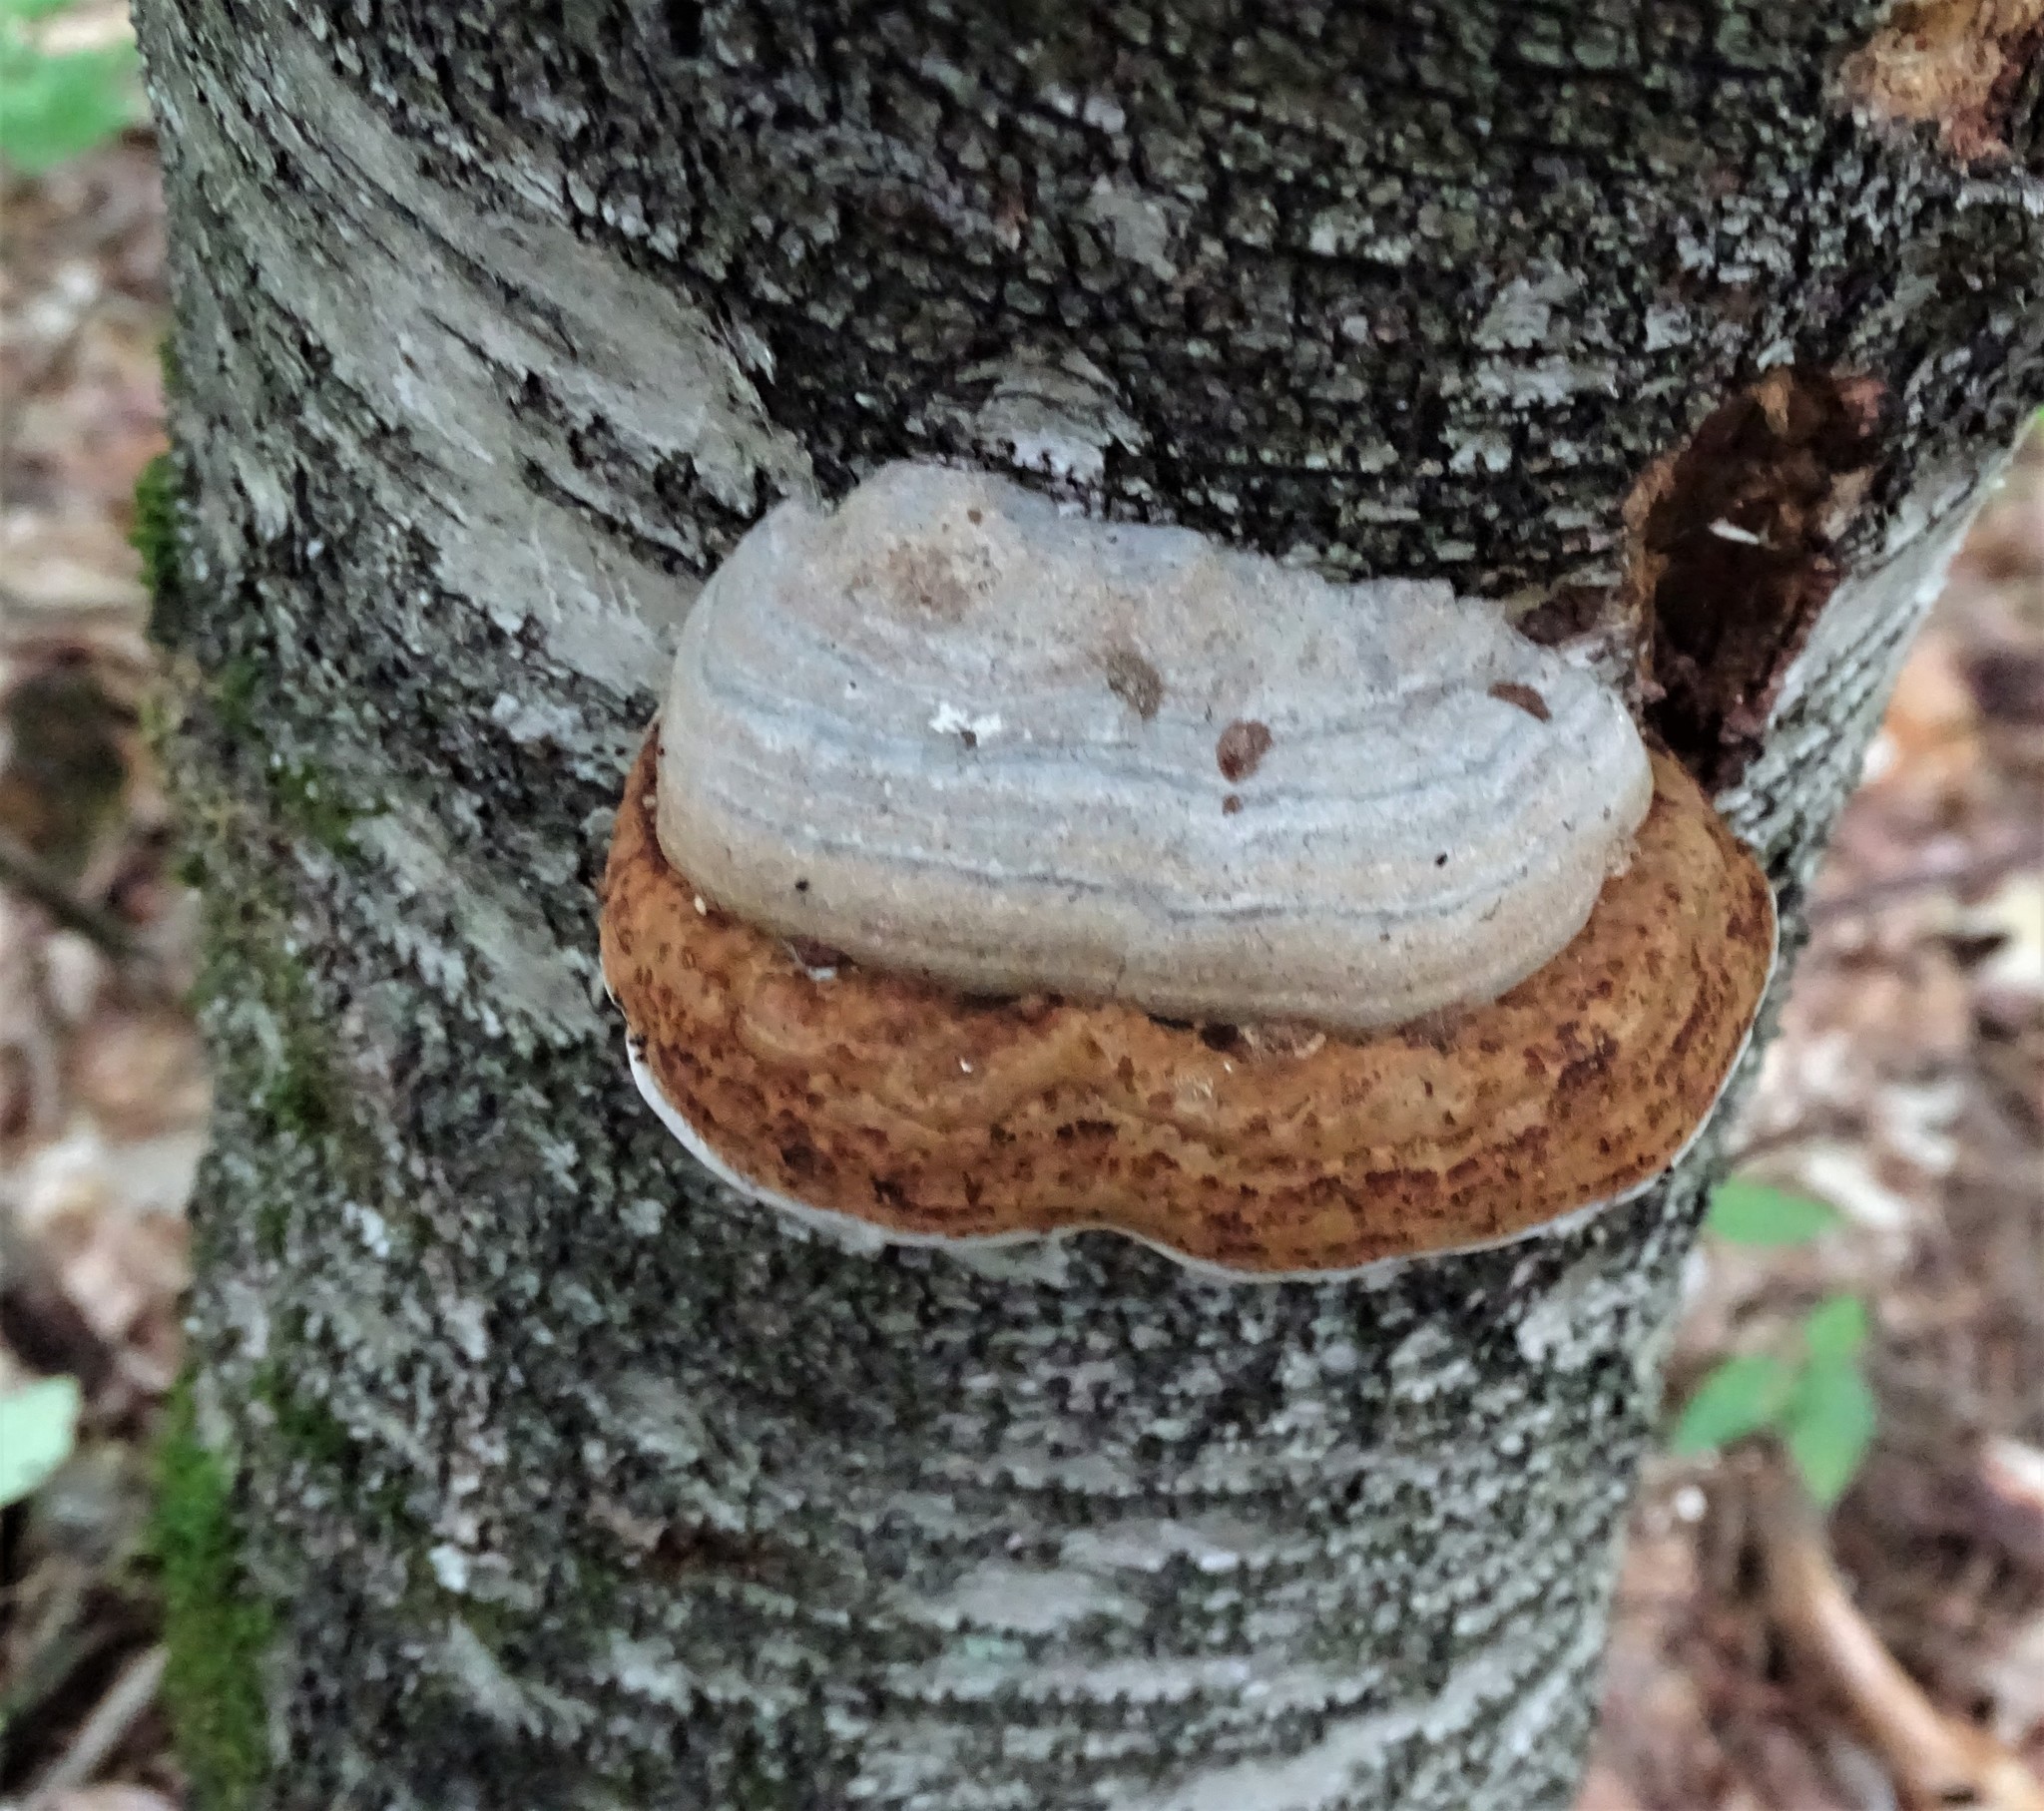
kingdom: Fungi
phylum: Basidiomycota
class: Agaricomycetes
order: Polyporales
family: Polyporaceae
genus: Fomes
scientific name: Fomes fomentarius
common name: Hoof fungus
